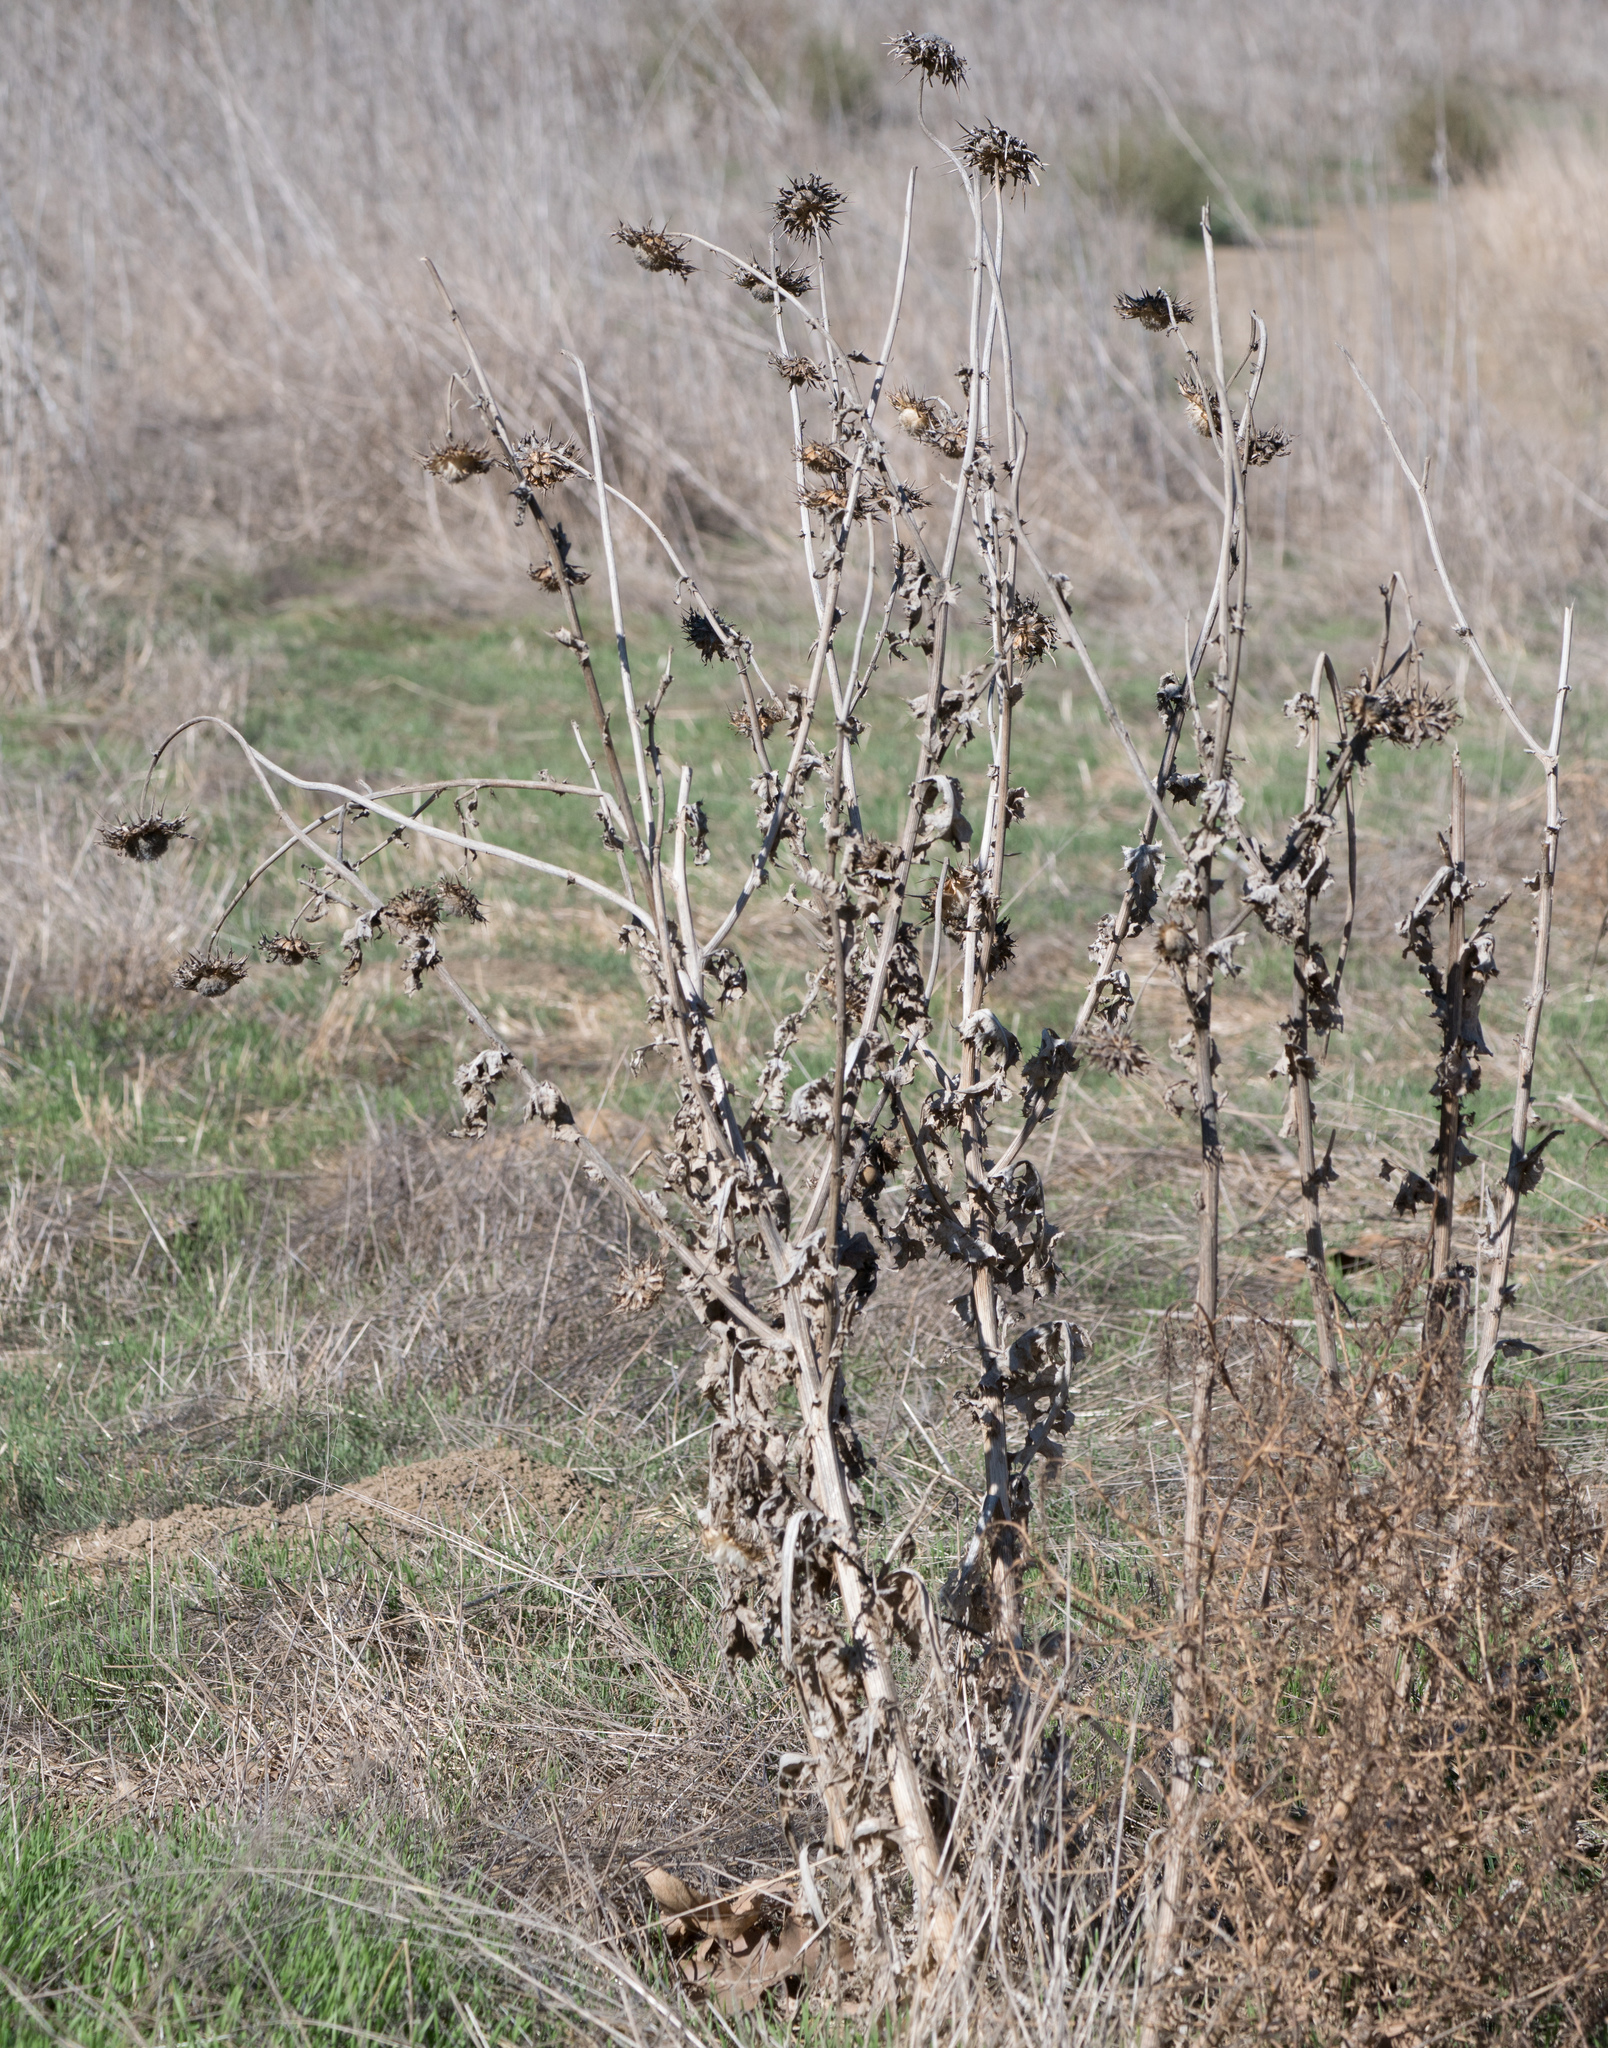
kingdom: Plantae
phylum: Tracheophyta
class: Magnoliopsida
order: Asterales
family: Asteraceae
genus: Silybum
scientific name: Silybum marianum
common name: Milk thistle
